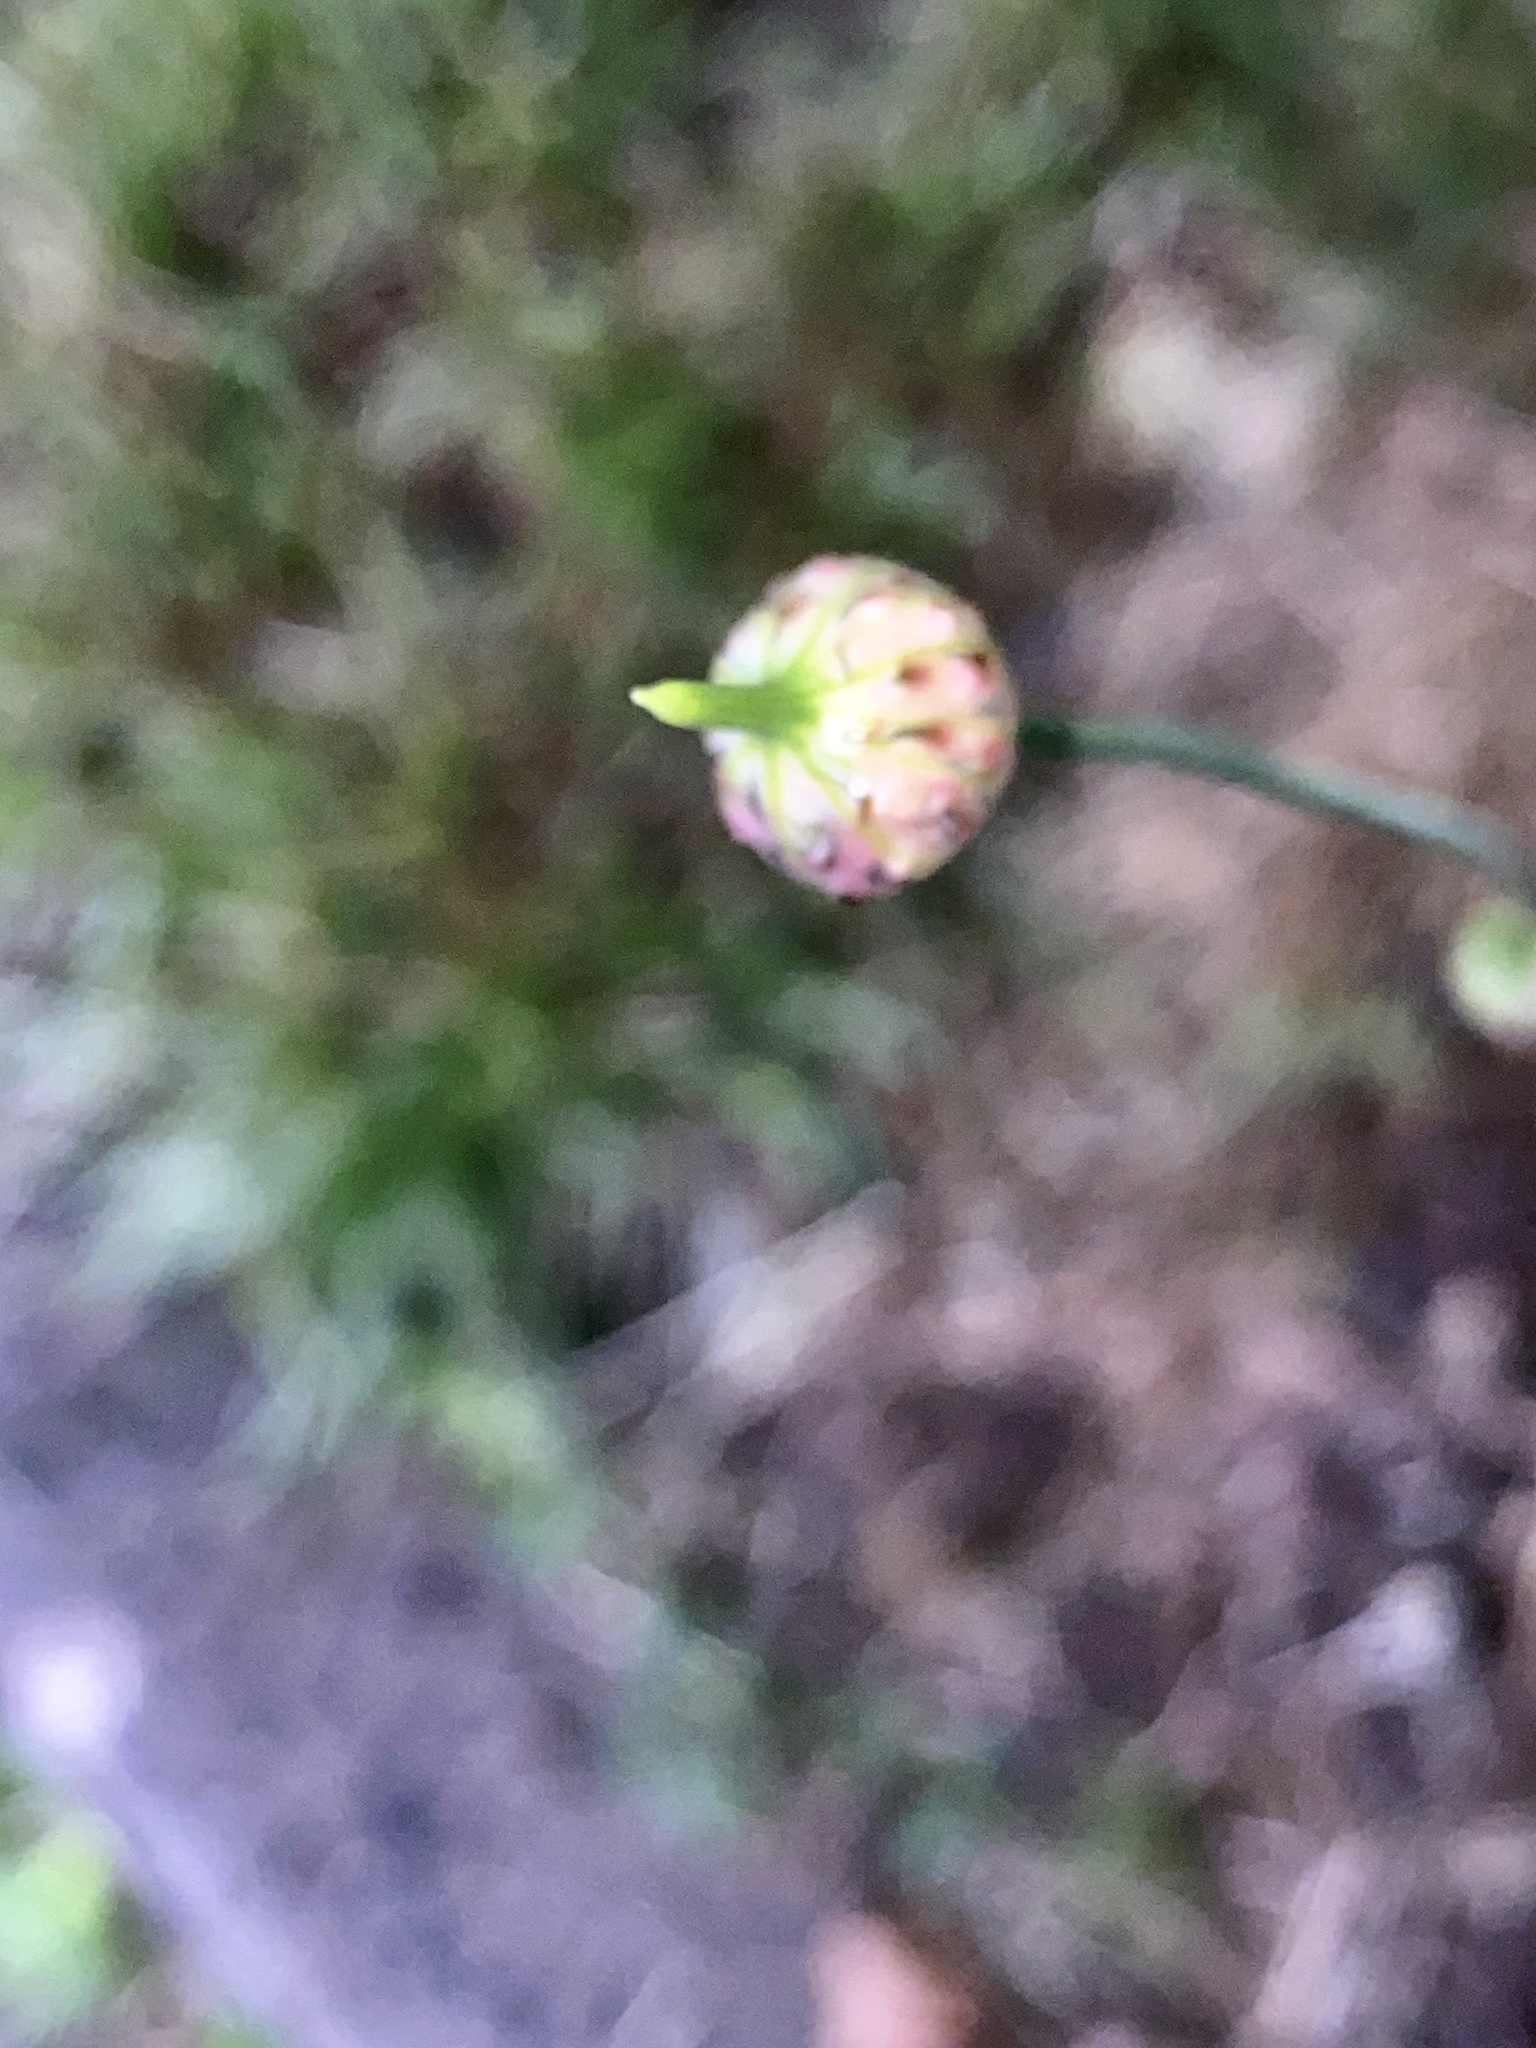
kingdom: Plantae
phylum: Tracheophyta
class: Liliopsida
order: Asparagales
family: Amaryllidaceae
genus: Allium
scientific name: Allium vineale
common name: Crow garlic
